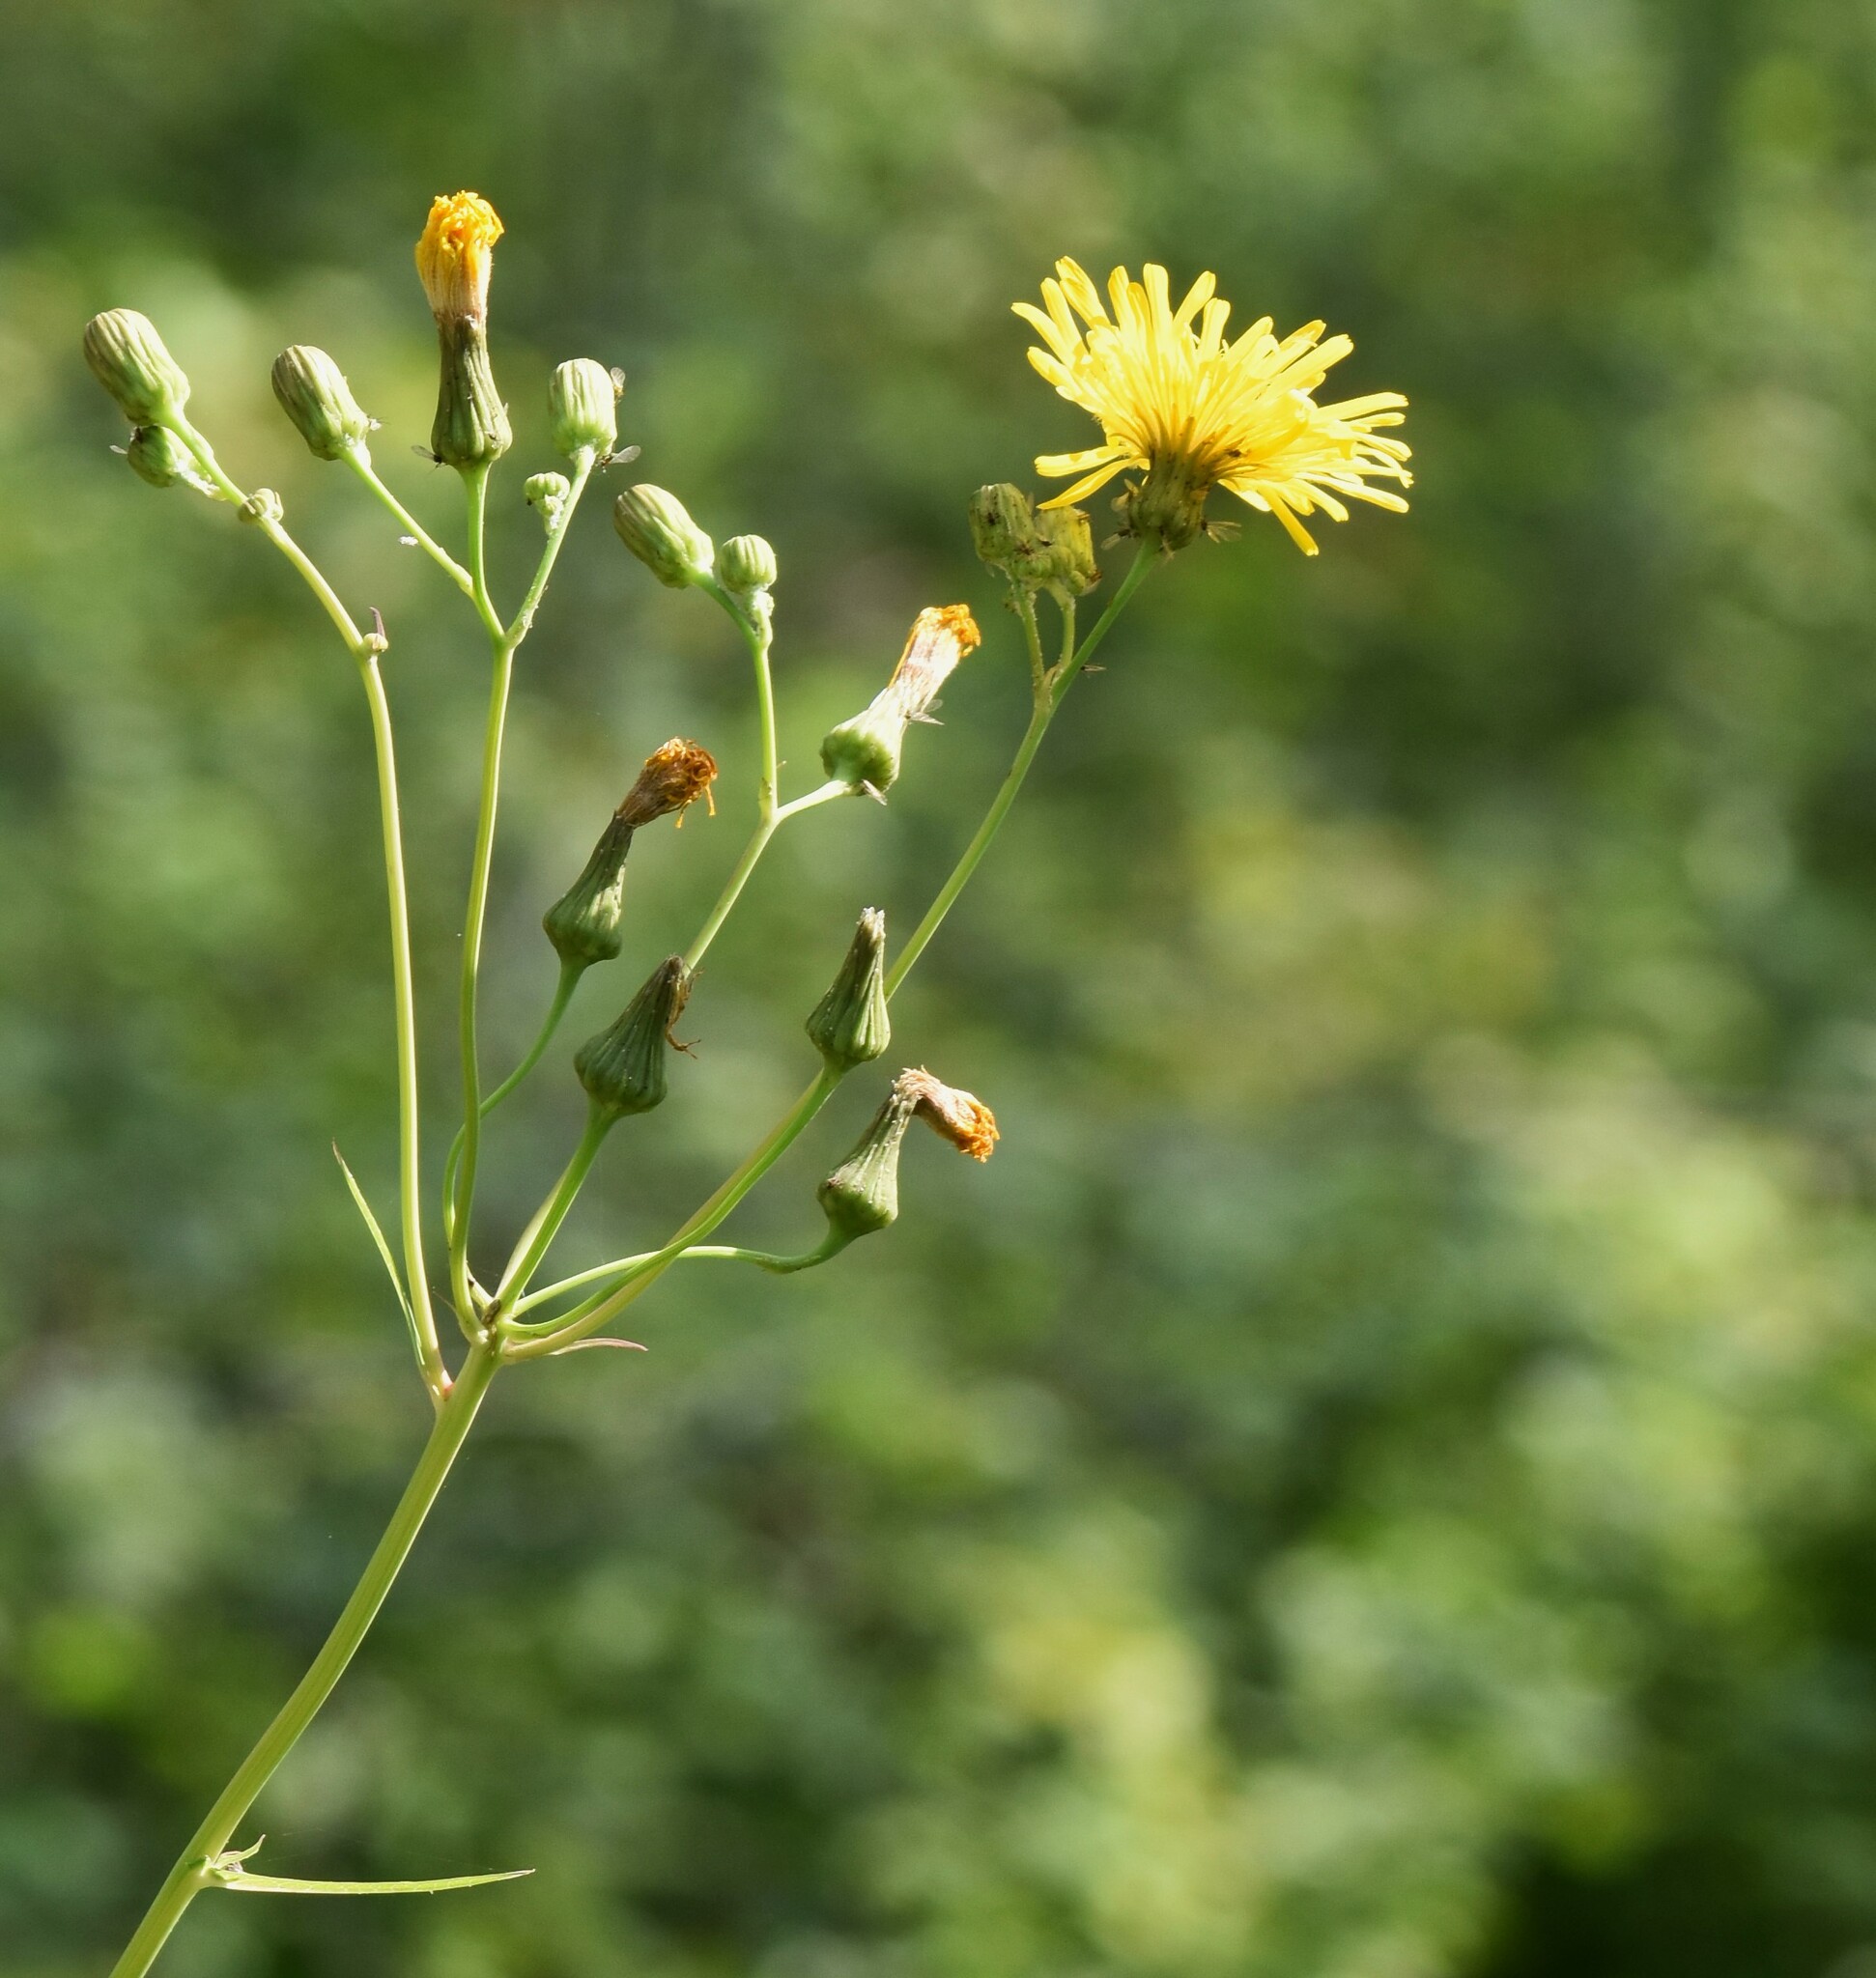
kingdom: Plantae
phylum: Tracheophyta
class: Magnoliopsida
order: Asterales
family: Asteraceae
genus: Sonchus
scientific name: Sonchus arvensis
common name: Perennial sow-thistle
